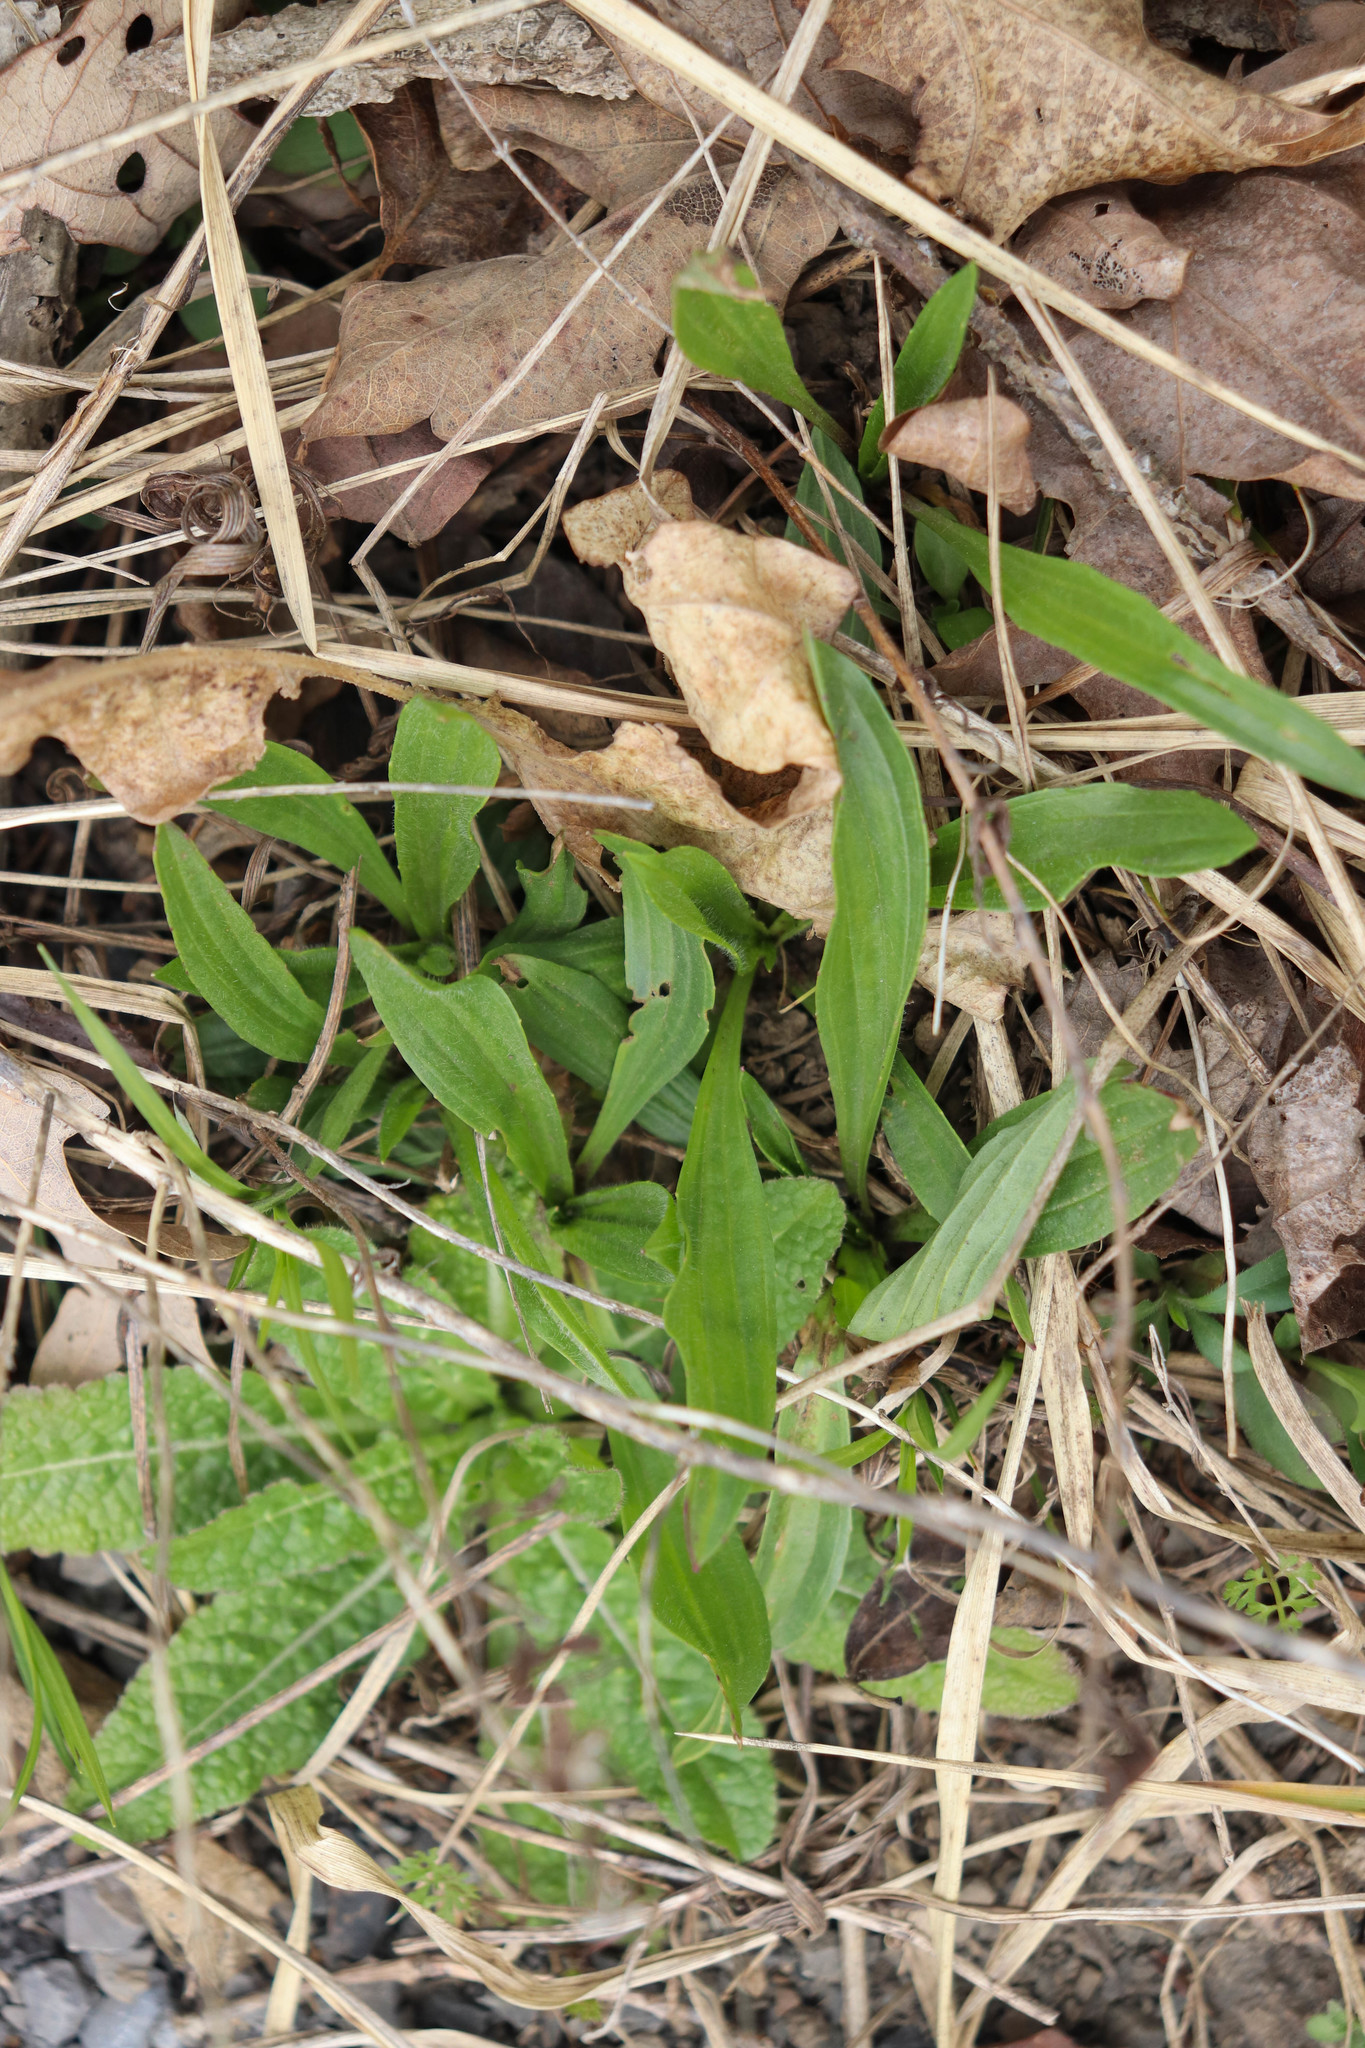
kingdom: Plantae
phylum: Tracheophyta
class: Magnoliopsida
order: Lamiales
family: Plantaginaceae
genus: Plantago
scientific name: Plantago lanceolata
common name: Ribwort plantain
